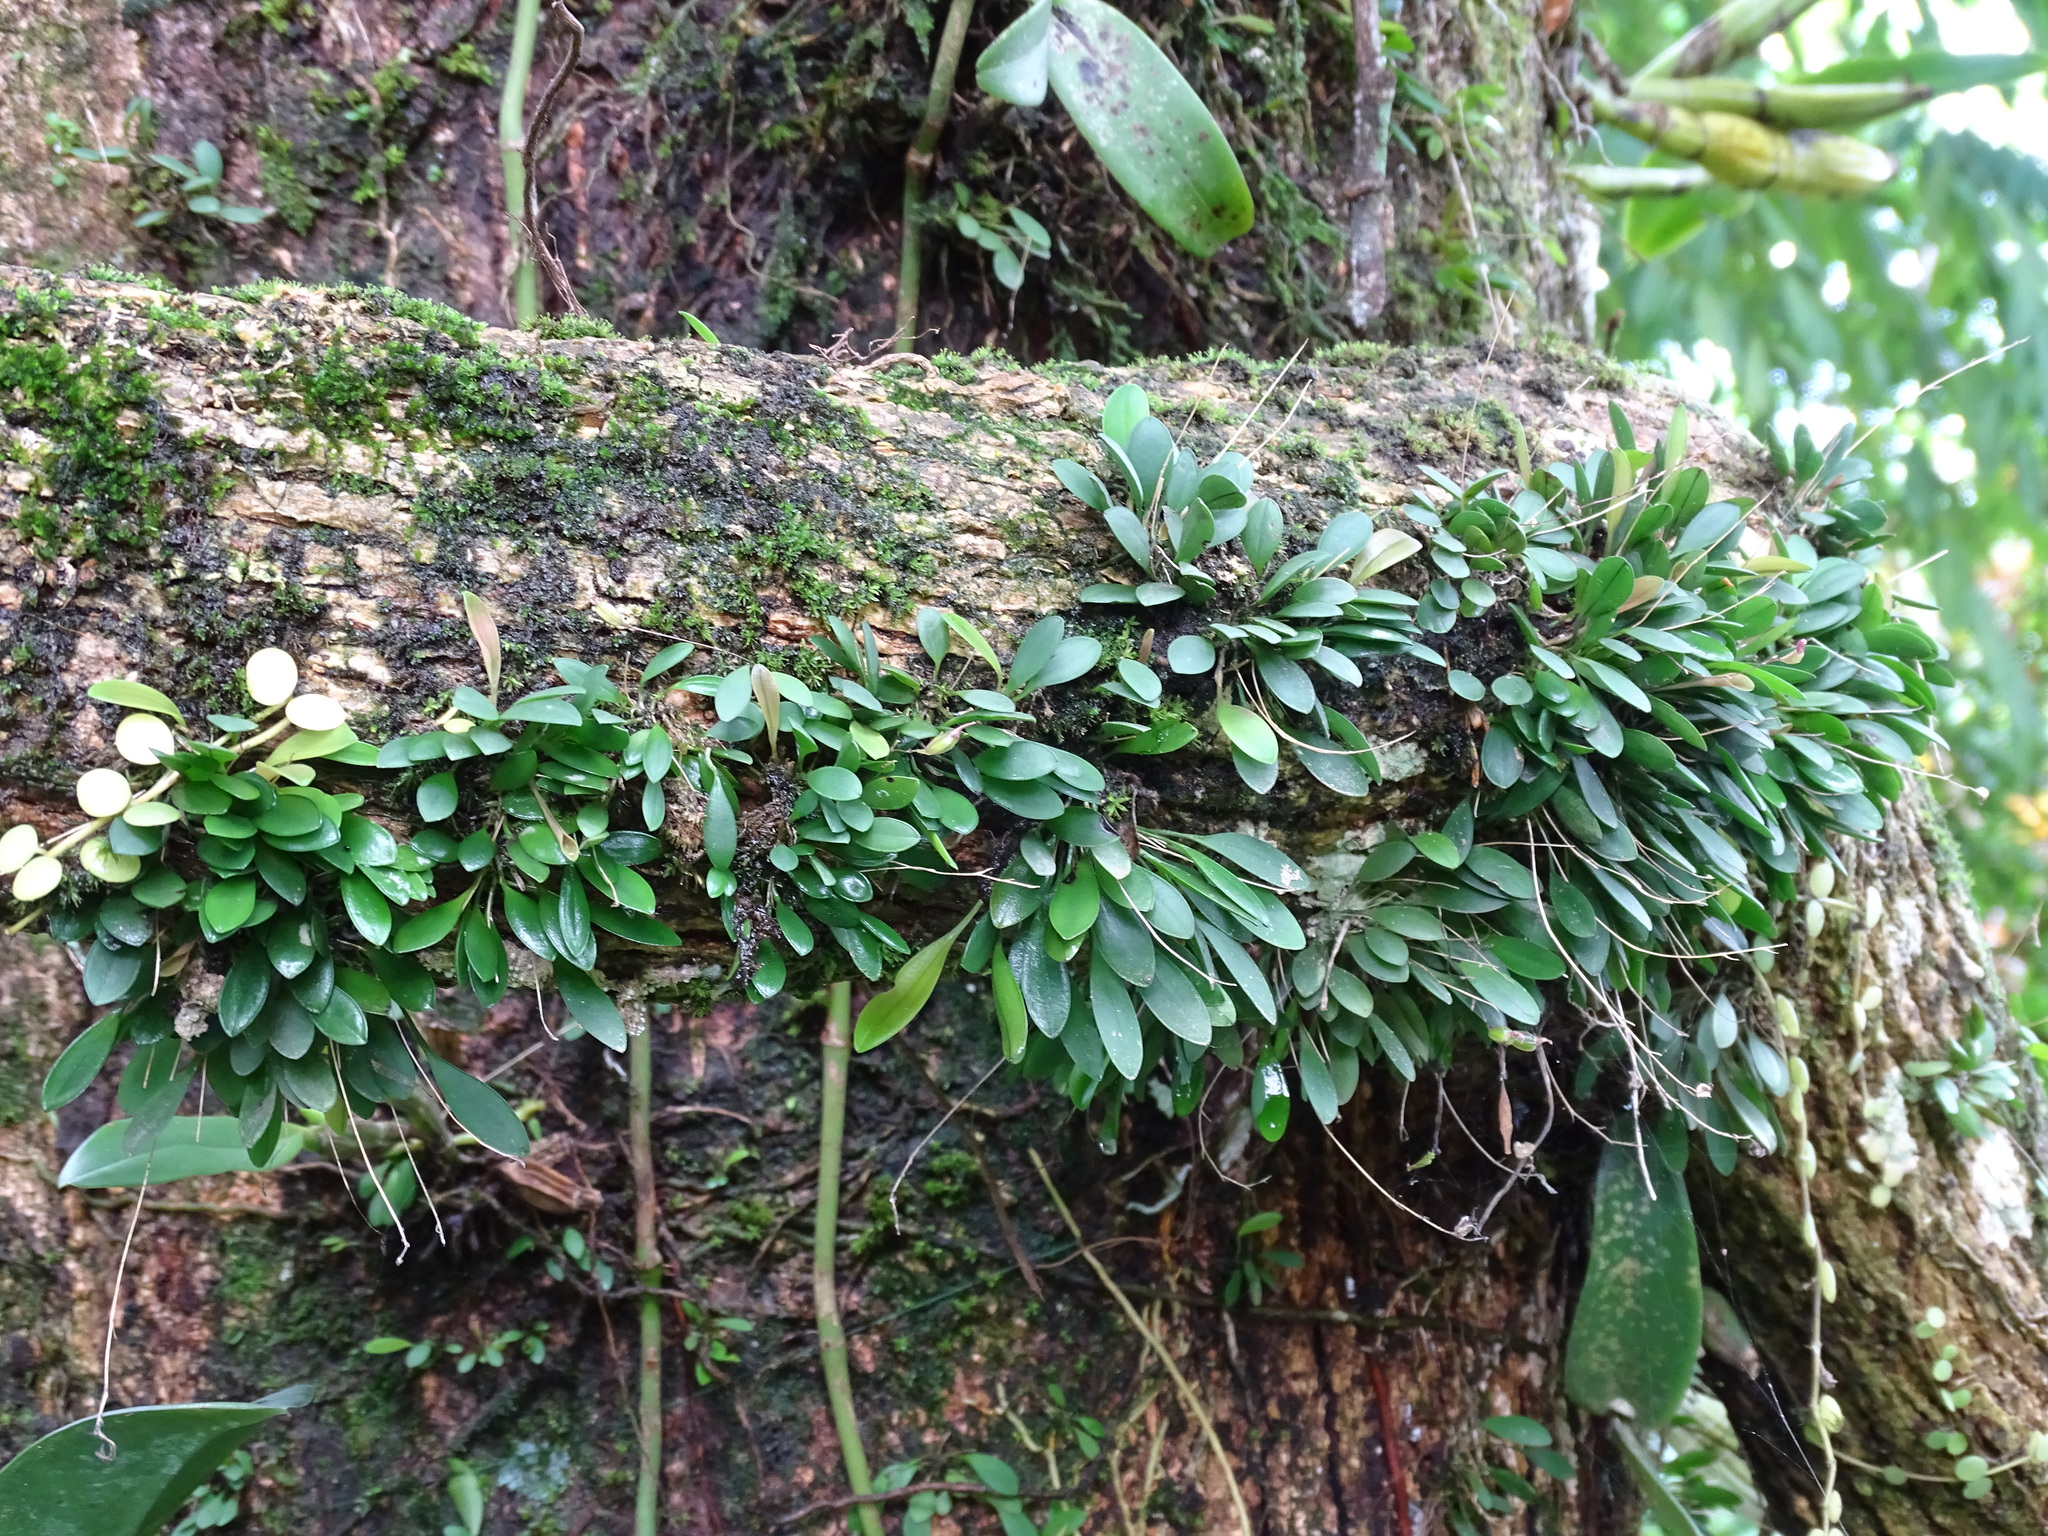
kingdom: Plantae
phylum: Tracheophyta
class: Liliopsida
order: Asparagales
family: Orchidaceae
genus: Specklinia
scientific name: Specklinia picta
